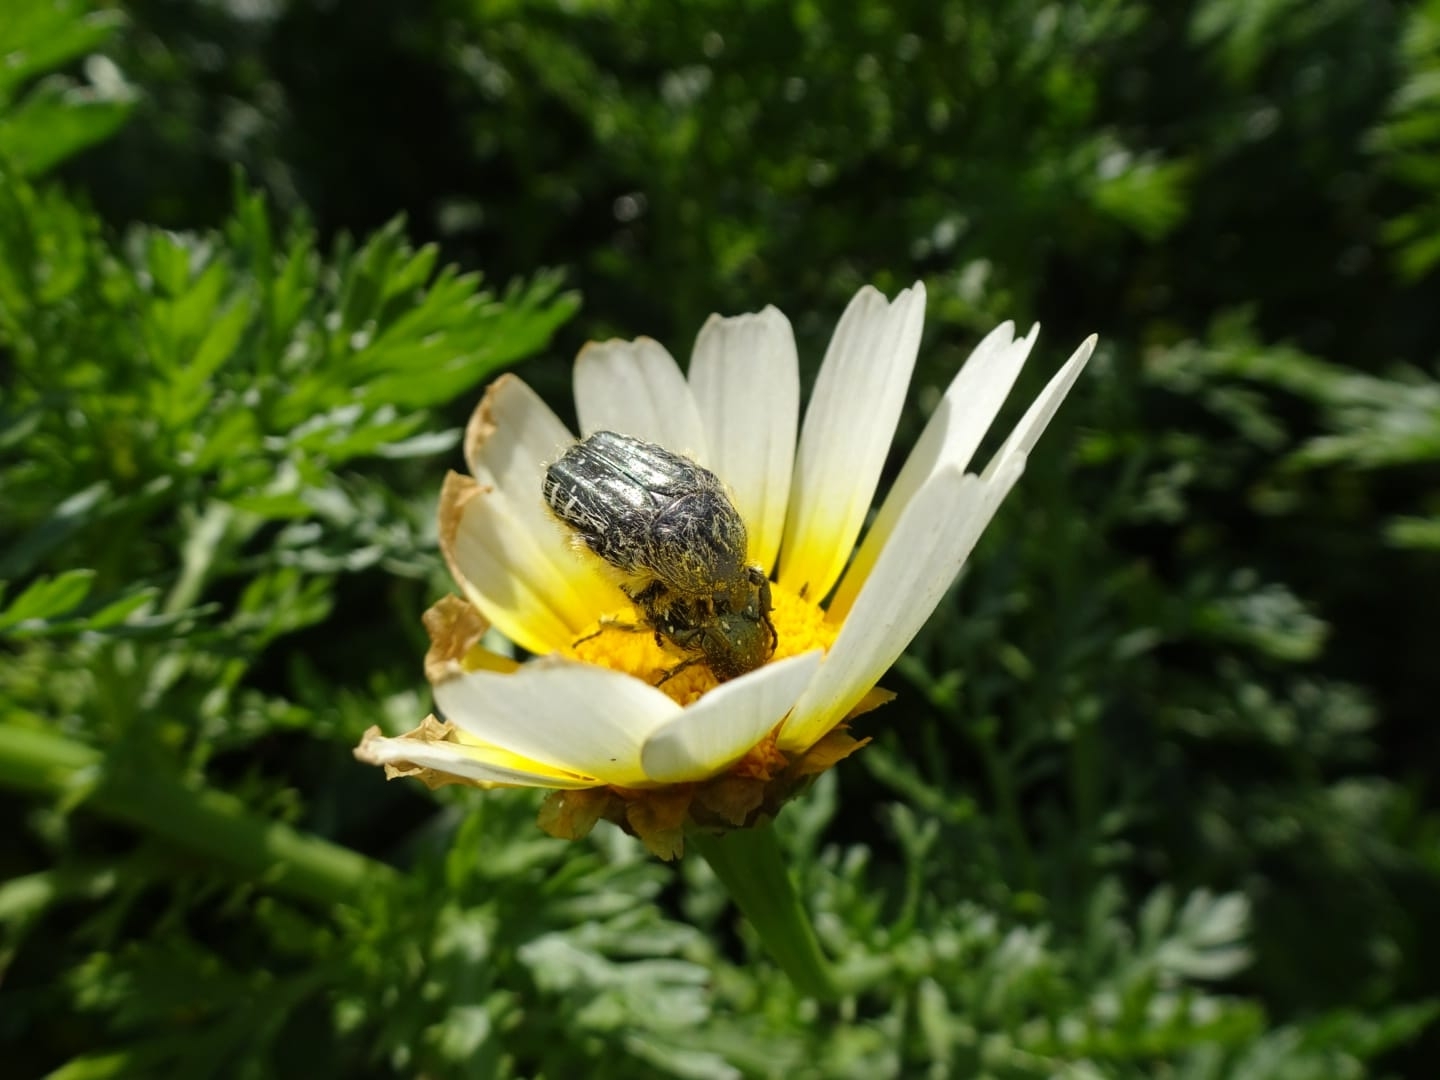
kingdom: Animalia
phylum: Arthropoda
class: Insecta
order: Coleoptera
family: Scarabaeidae
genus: Oxythyrea
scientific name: Oxythyrea funesta
